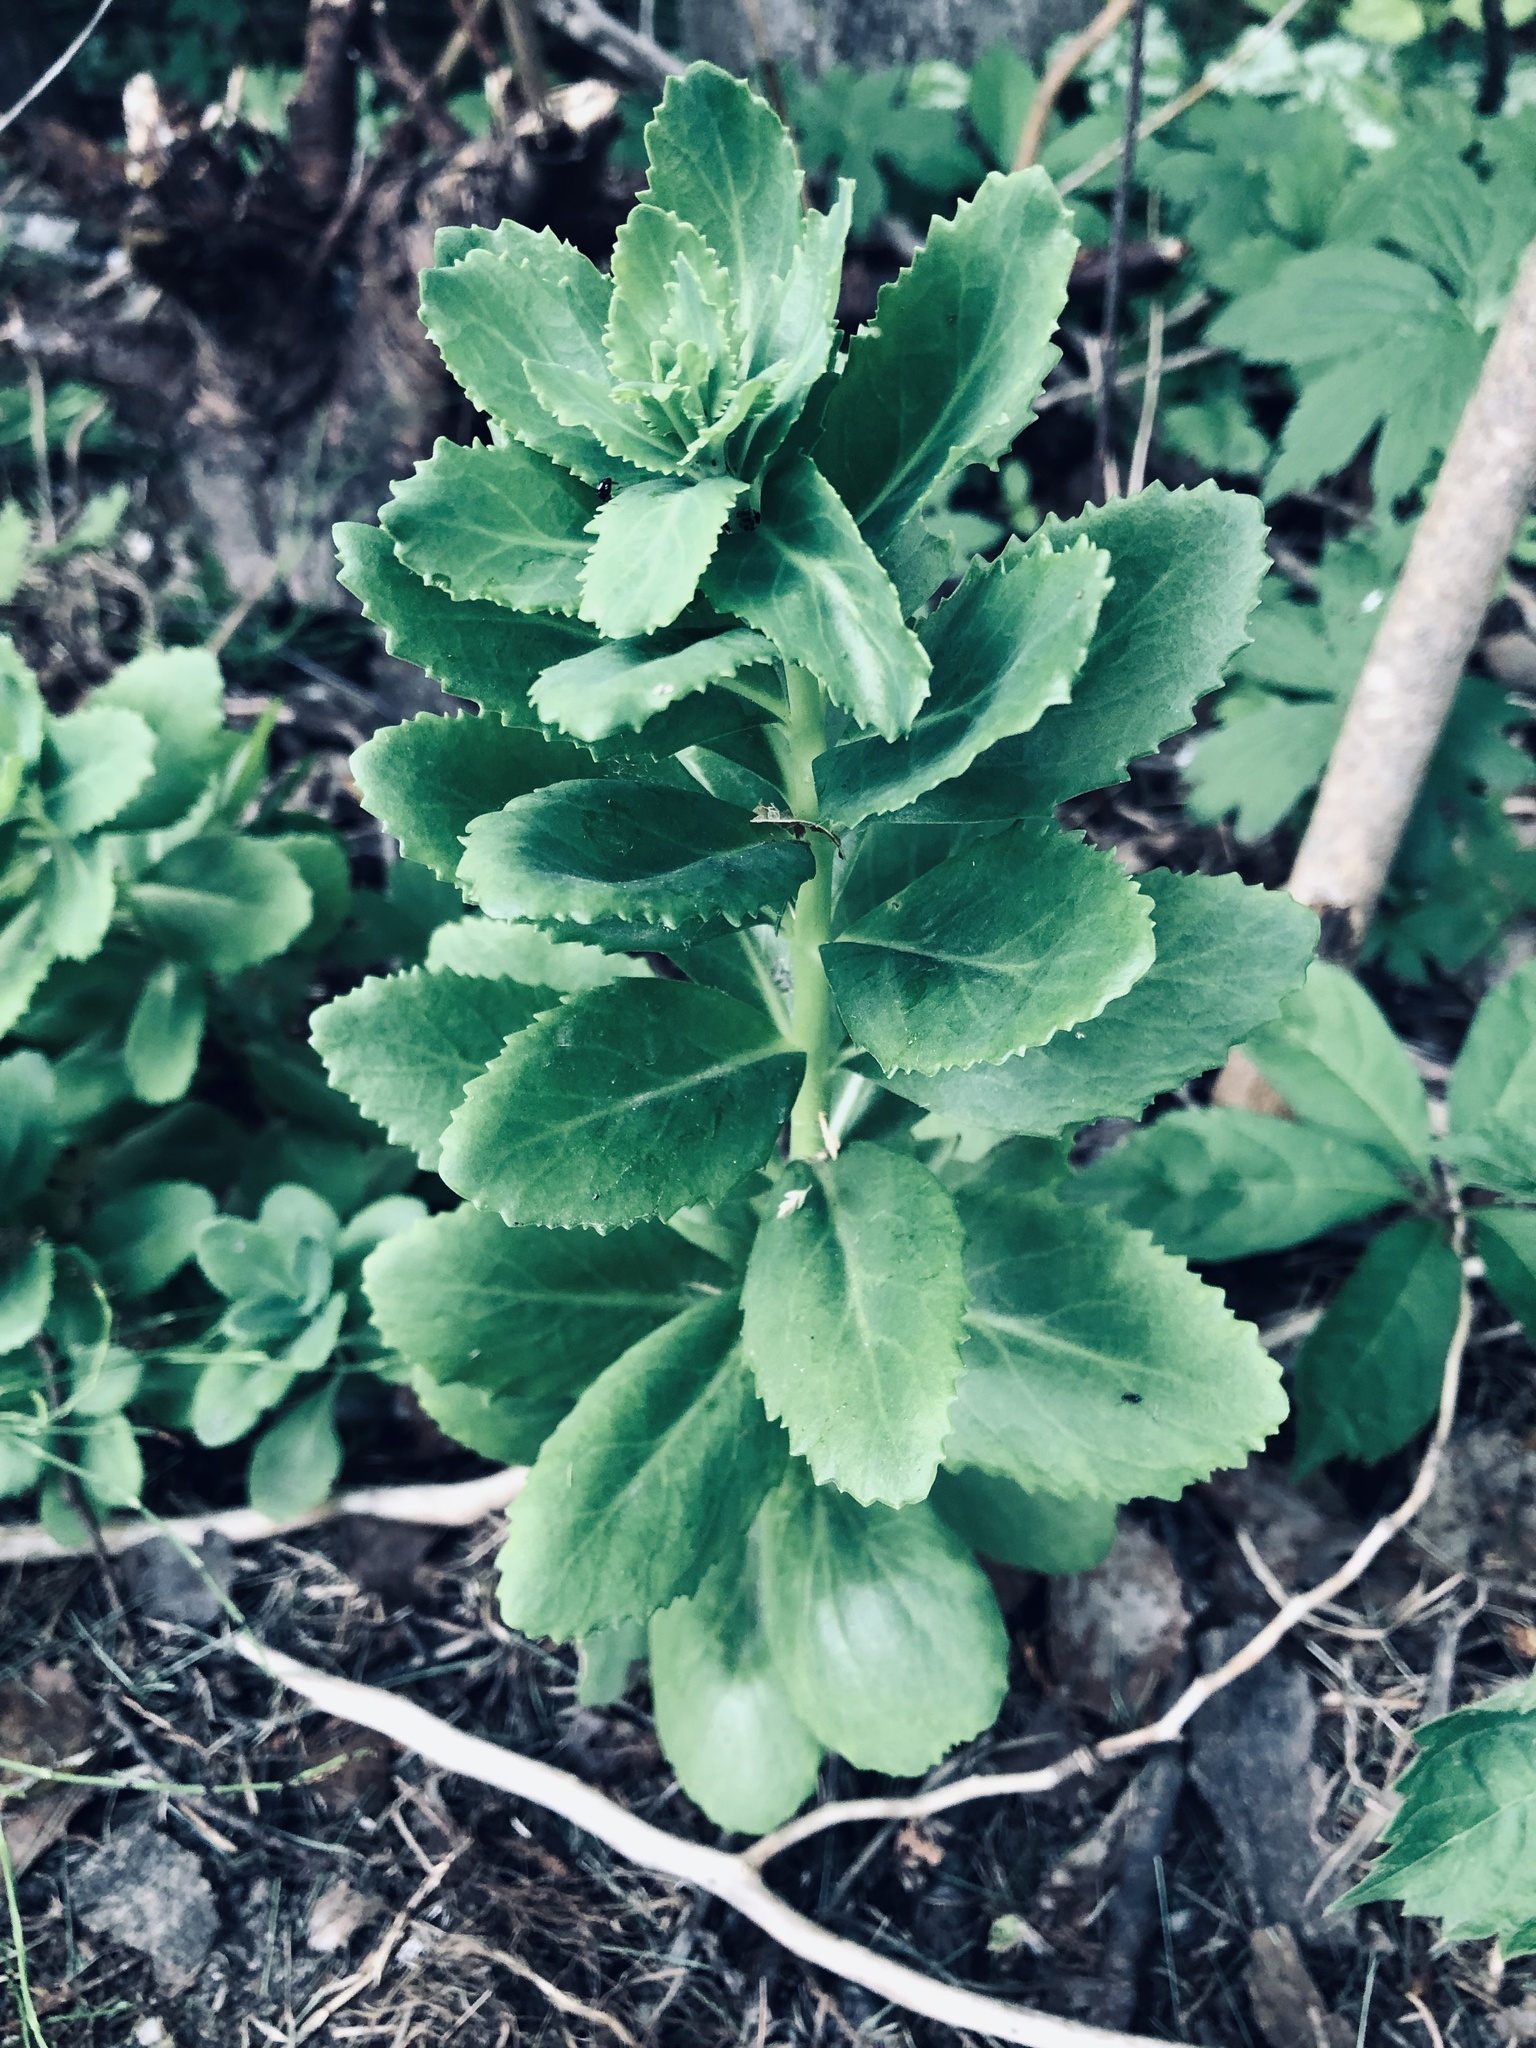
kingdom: Plantae
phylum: Tracheophyta
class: Magnoliopsida
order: Saxifragales
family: Crassulaceae
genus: Hylotelephium
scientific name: Hylotelephium telephium
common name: Live-forever
